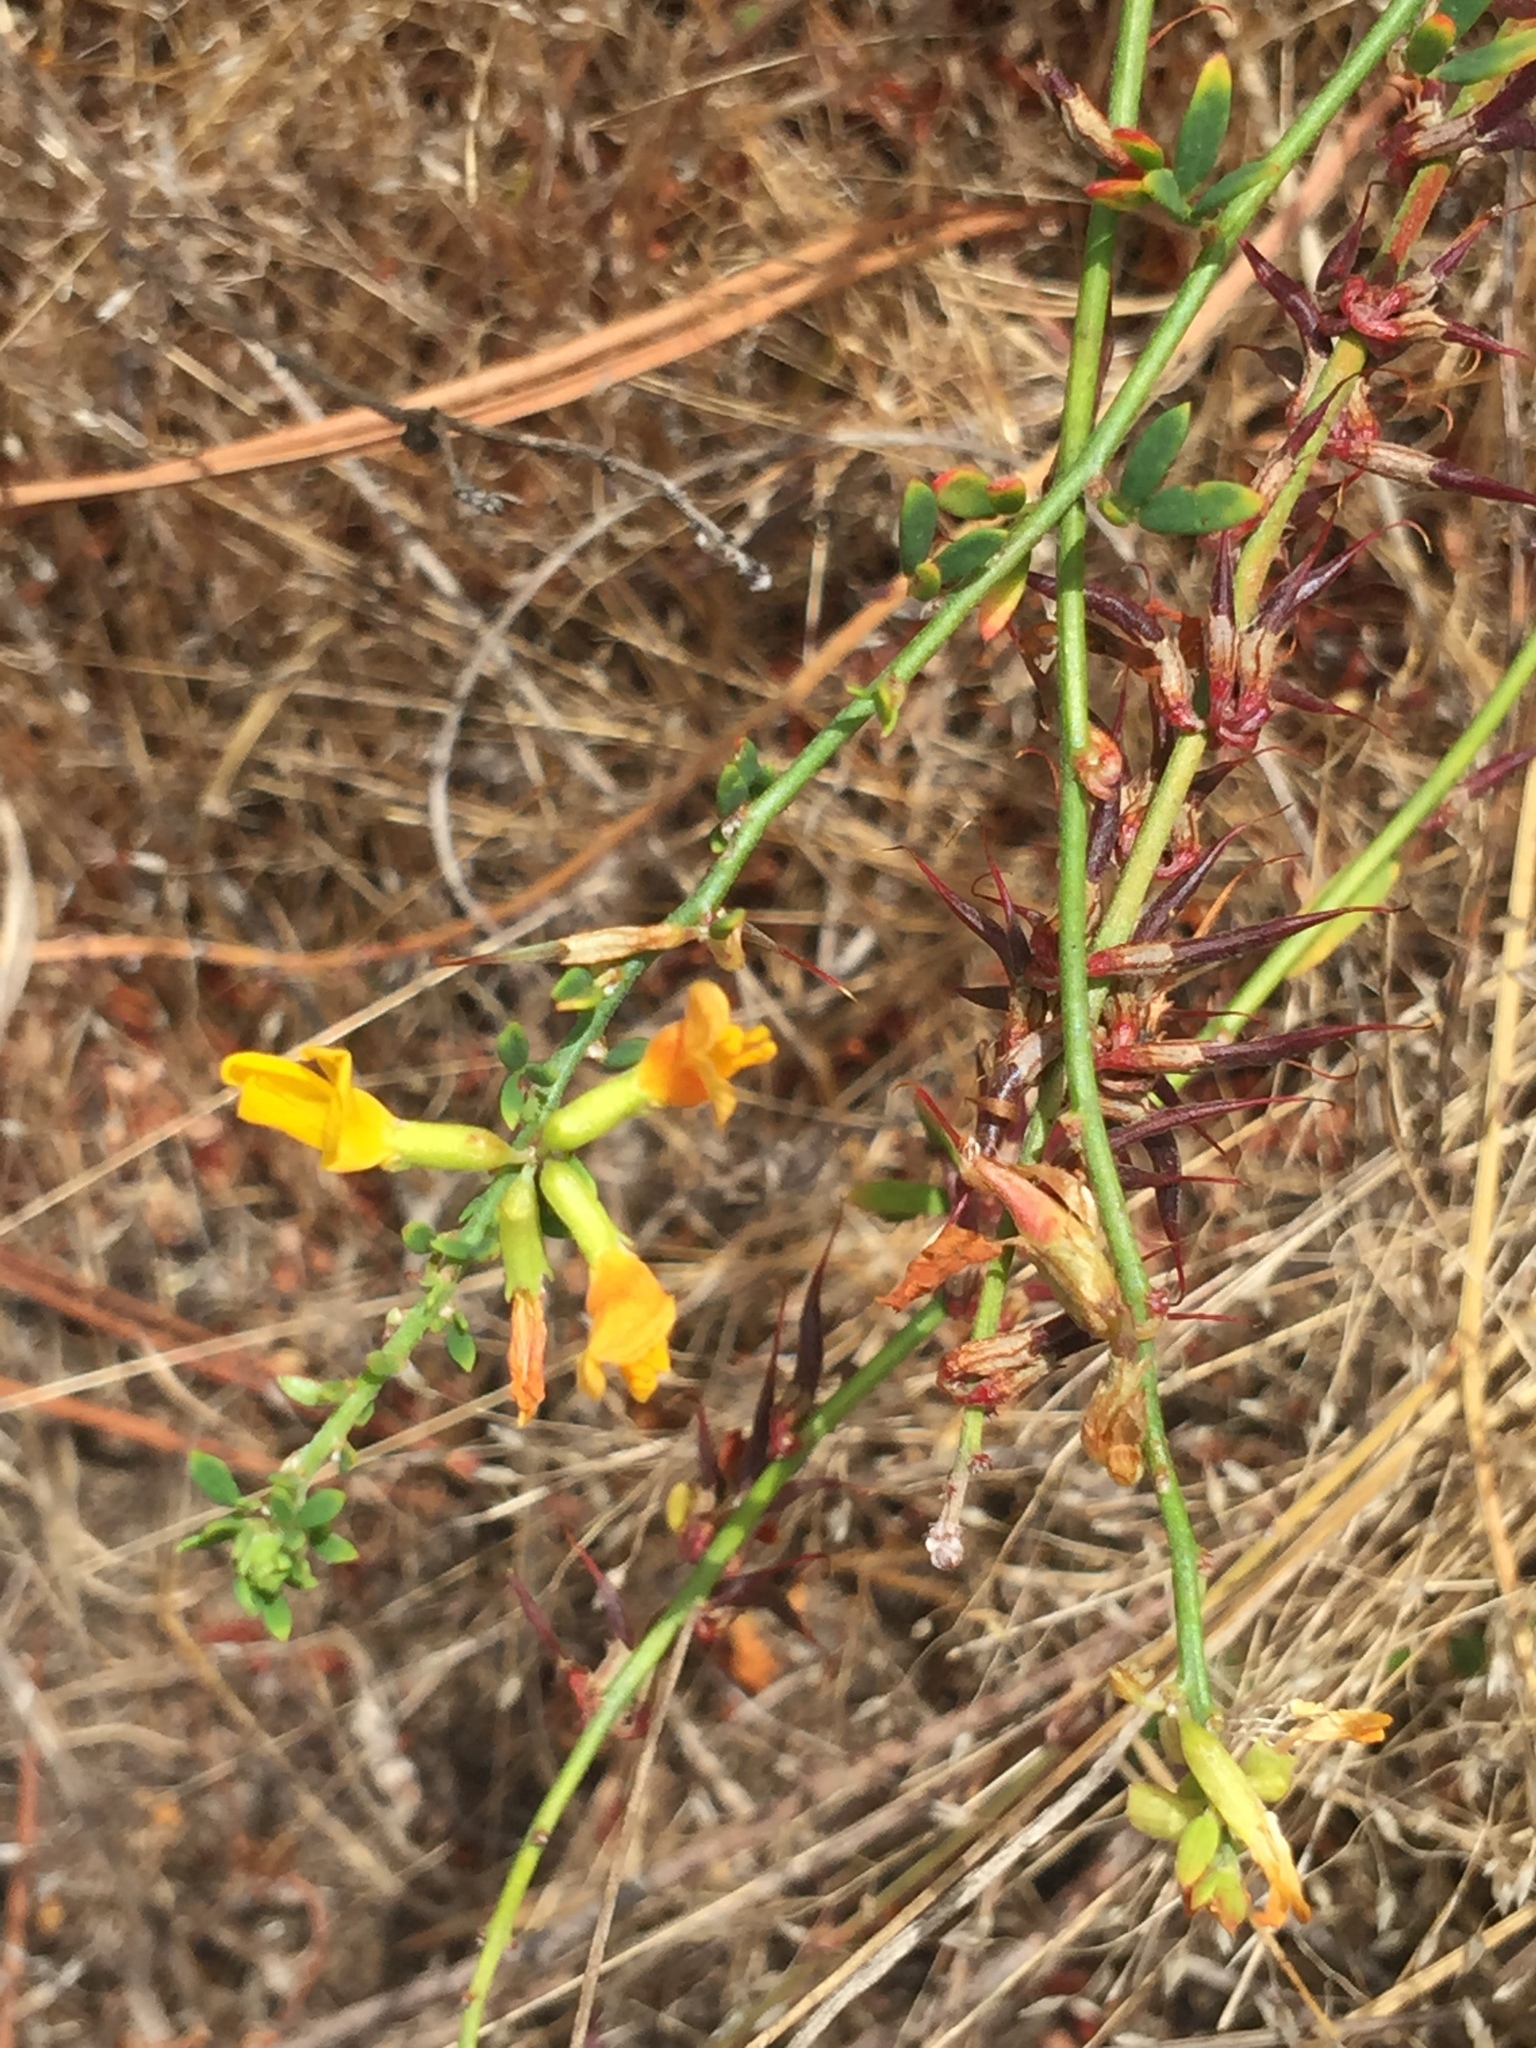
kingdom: Plantae
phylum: Tracheophyta
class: Magnoliopsida
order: Fabales
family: Fabaceae
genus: Acmispon
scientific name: Acmispon glaber
